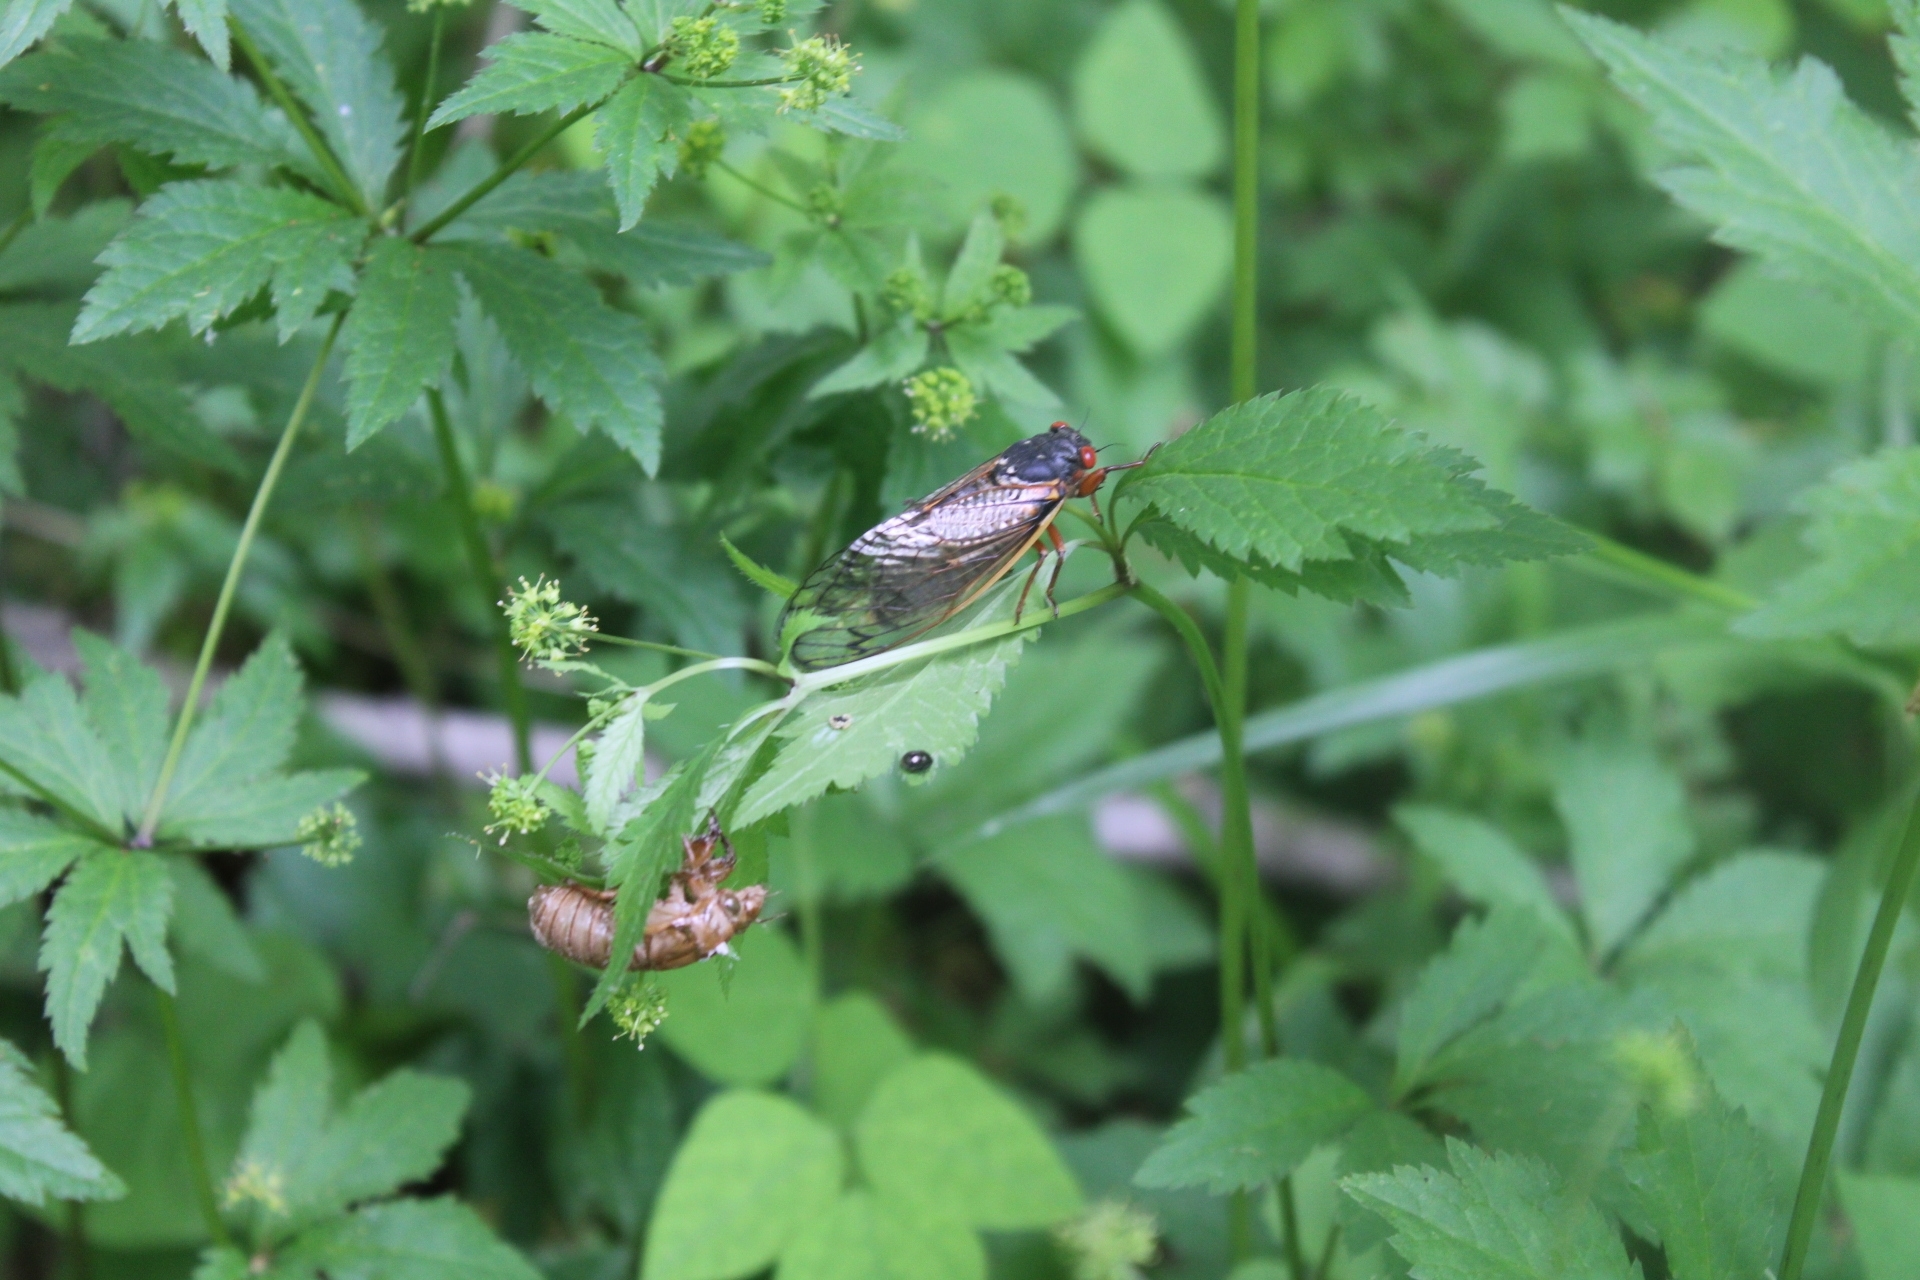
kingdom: Animalia
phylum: Arthropoda
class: Insecta
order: Hemiptera
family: Cicadidae
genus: Magicicada
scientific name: Magicicada septendecim
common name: Periodical cicada
